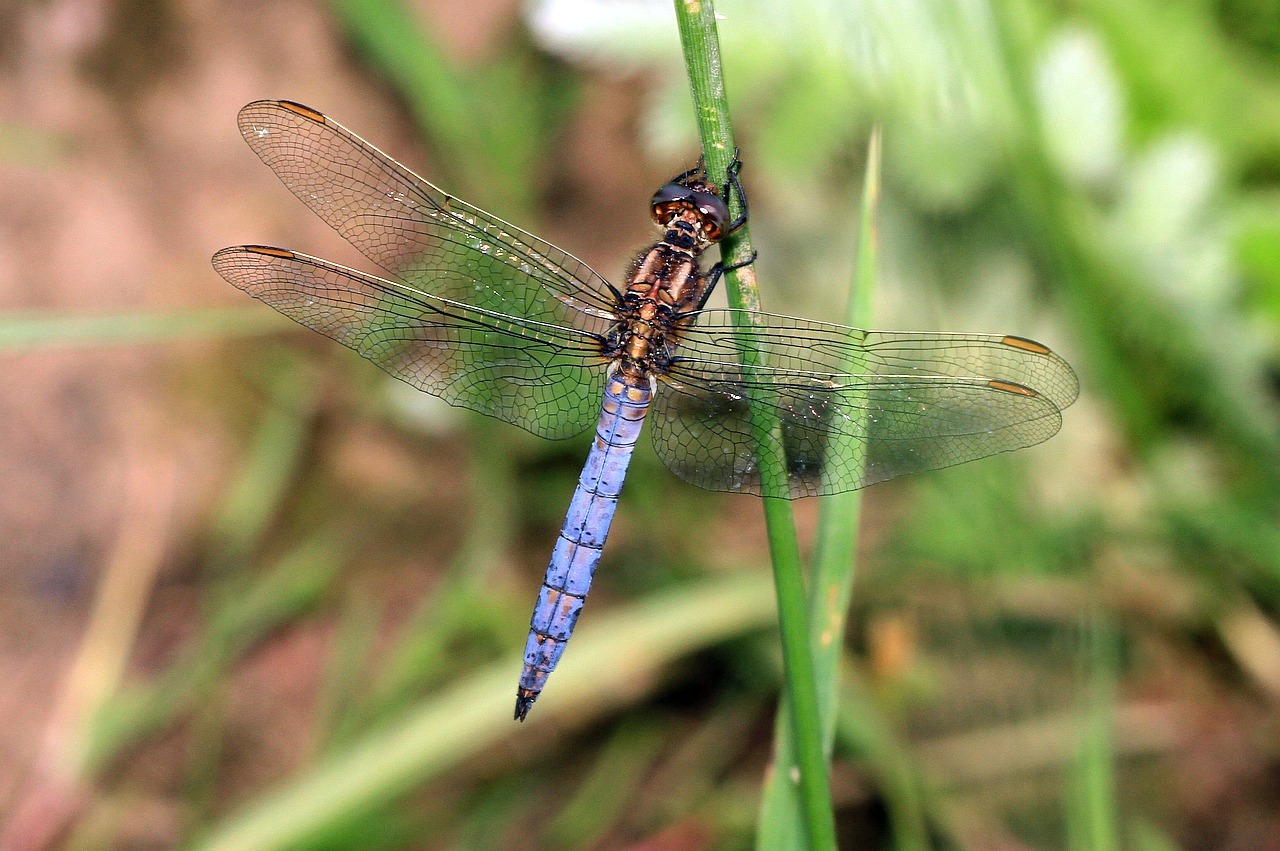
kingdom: Animalia
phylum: Arthropoda
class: Insecta
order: Odonata
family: Libellulidae
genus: Orthetrum
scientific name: Orthetrum coerulescens
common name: Keeled skimmer
